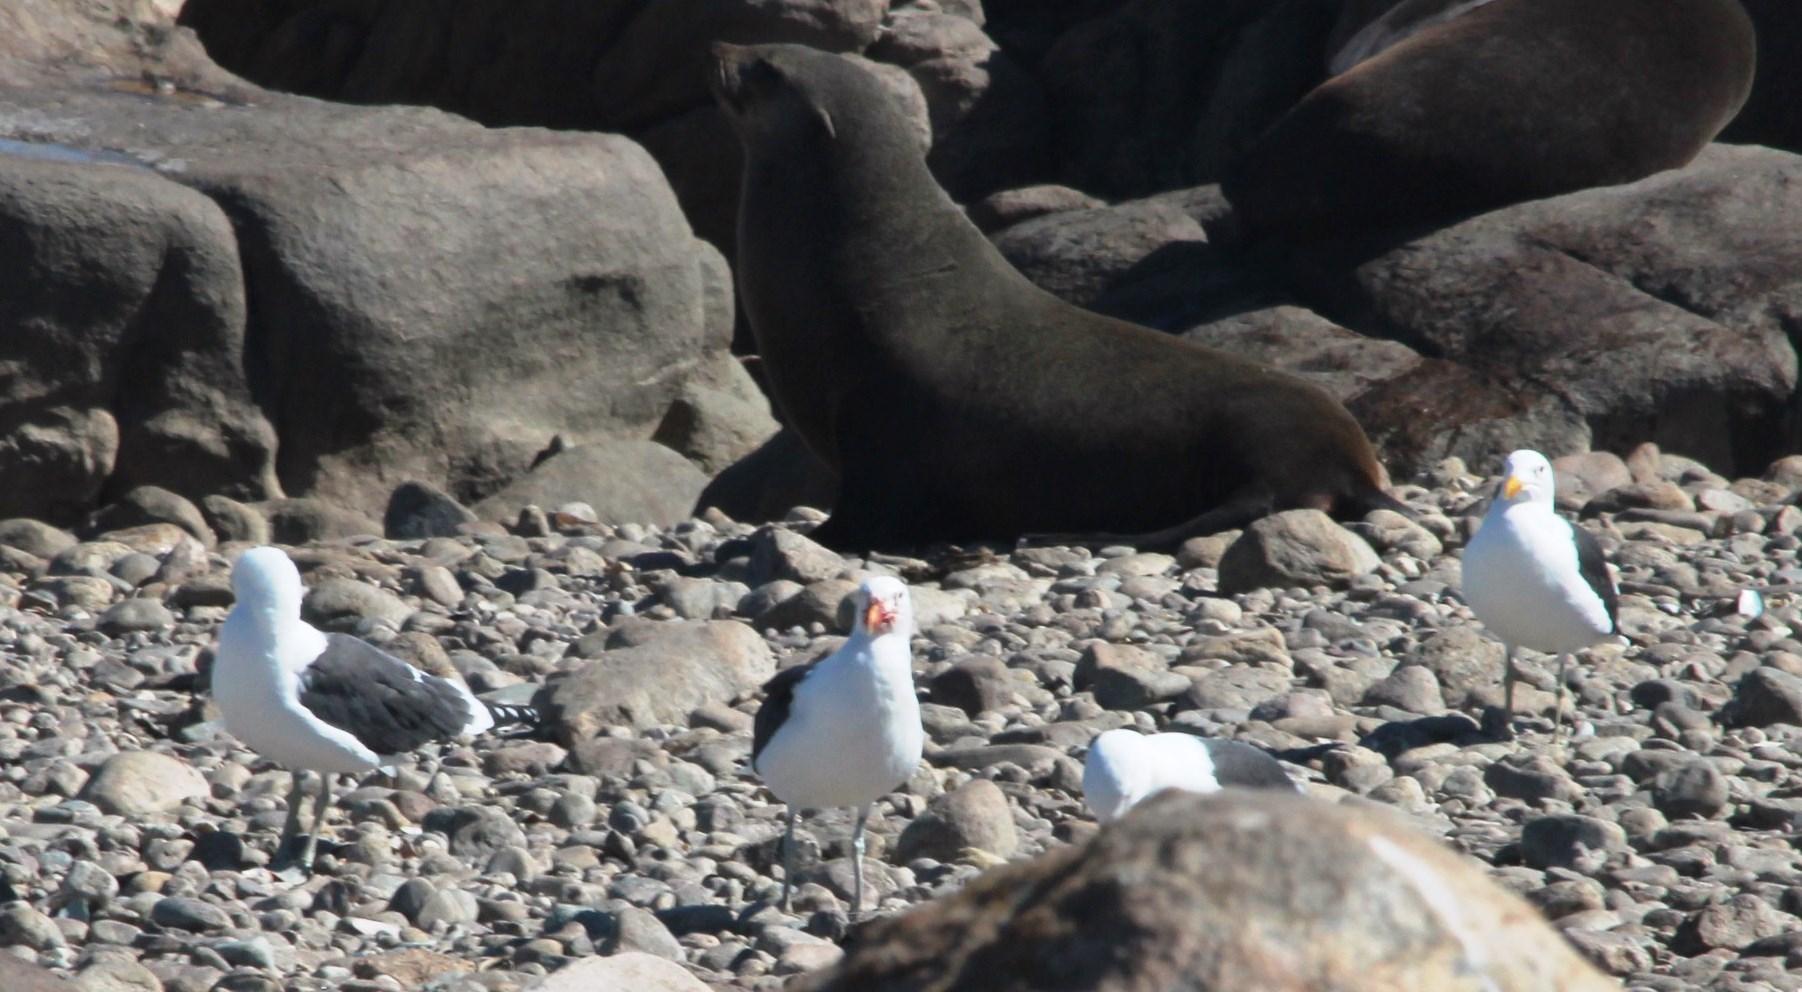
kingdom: Animalia
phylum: Chordata
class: Aves
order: Charadriiformes
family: Laridae
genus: Larus
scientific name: Larus dominicanus
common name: Kelp gull
